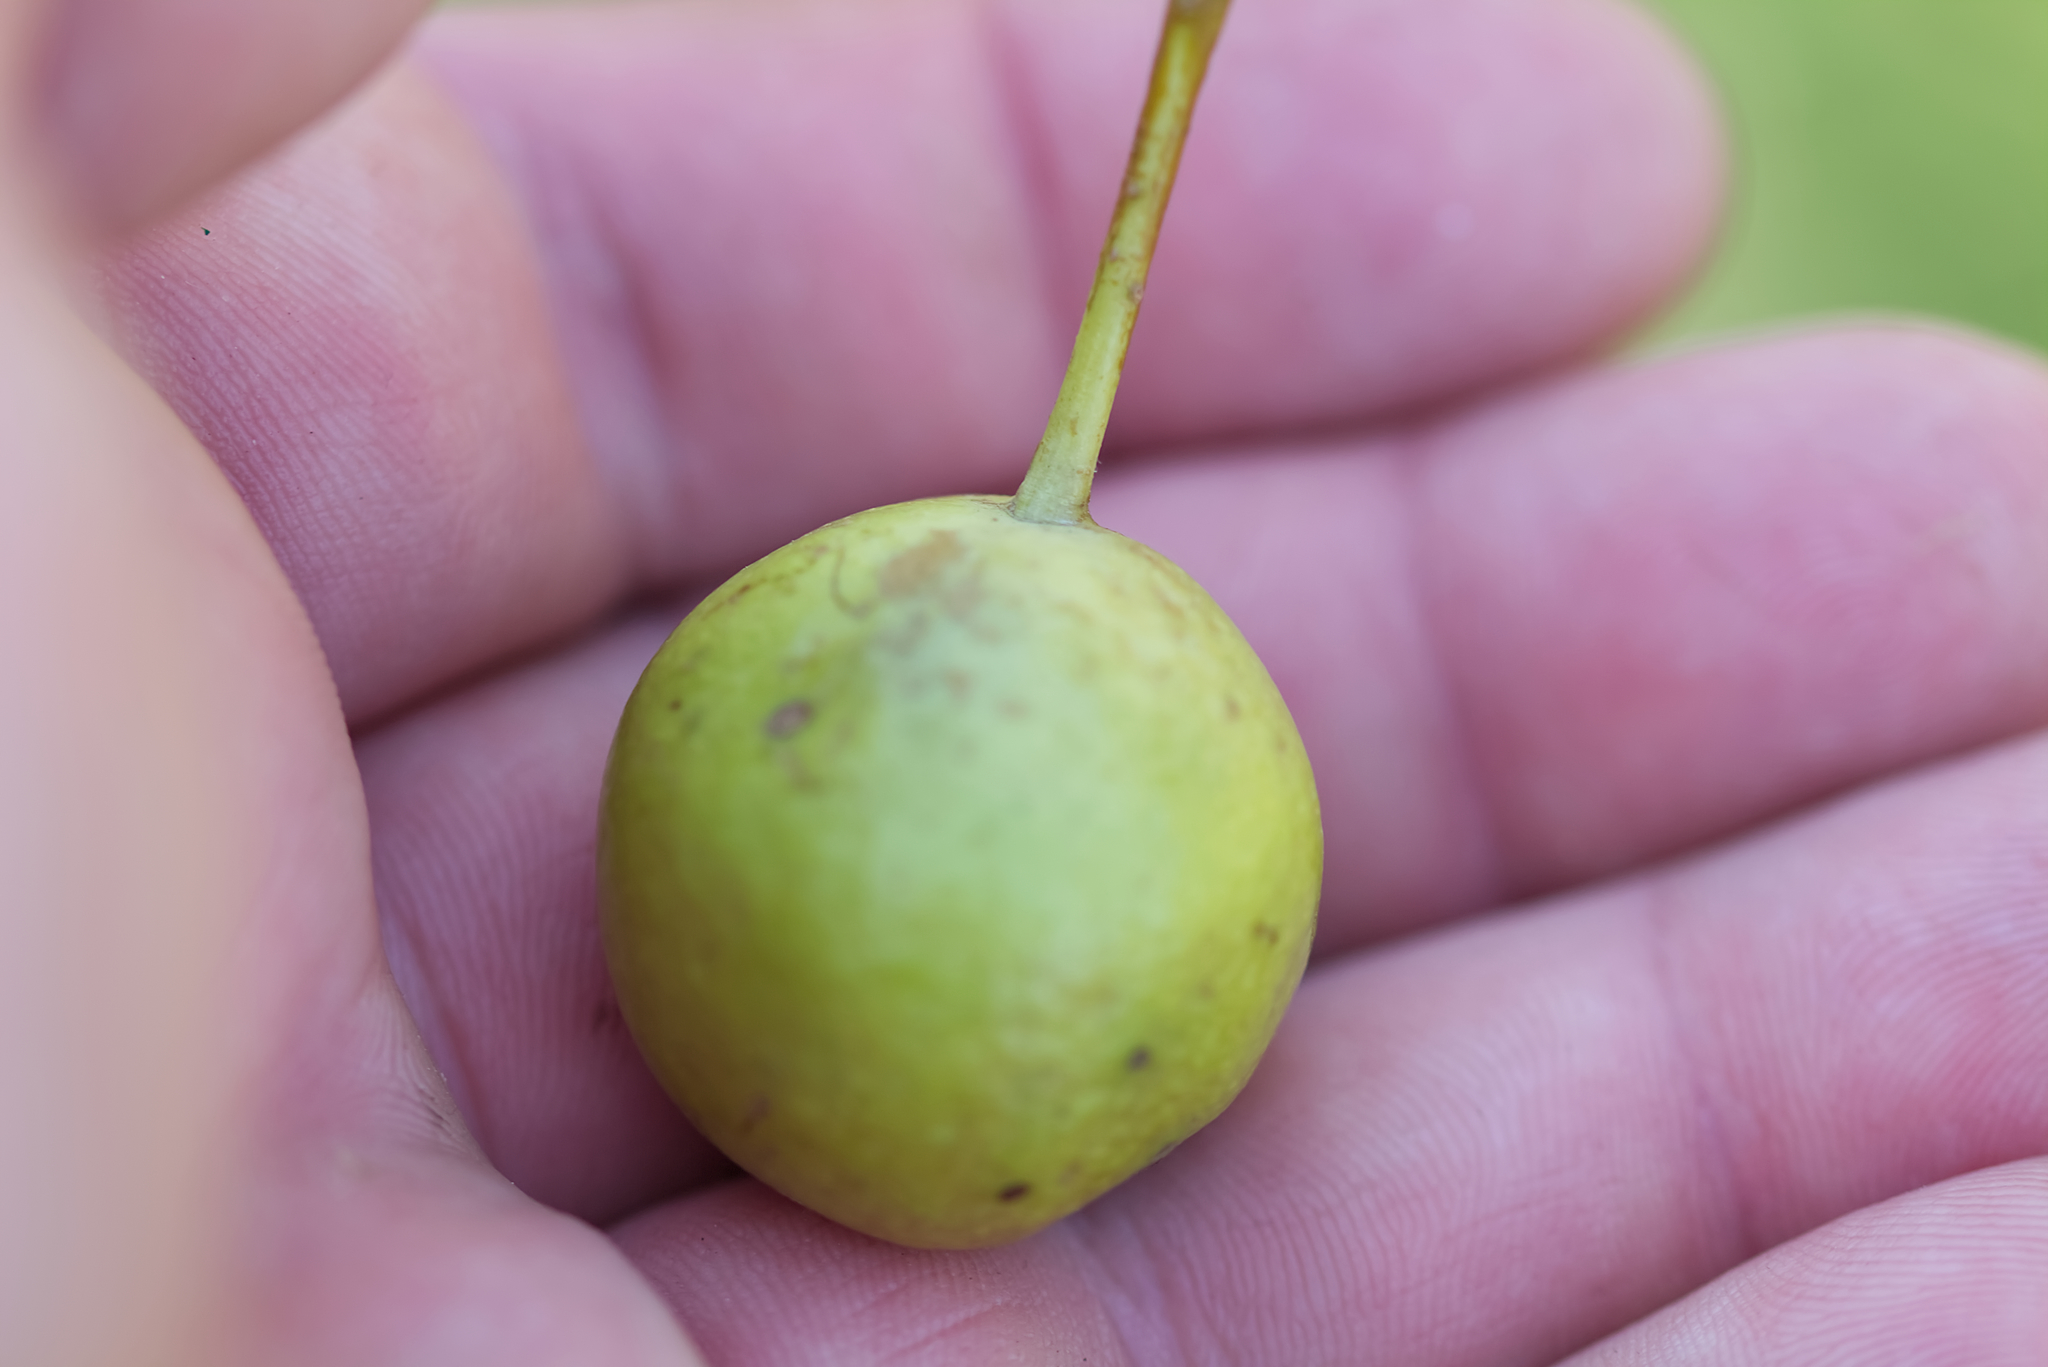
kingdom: Plantae
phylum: Tracheophyta
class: Magnoliopsida
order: Rosales
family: Rosaceae
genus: Pyrus
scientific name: Pyrus
